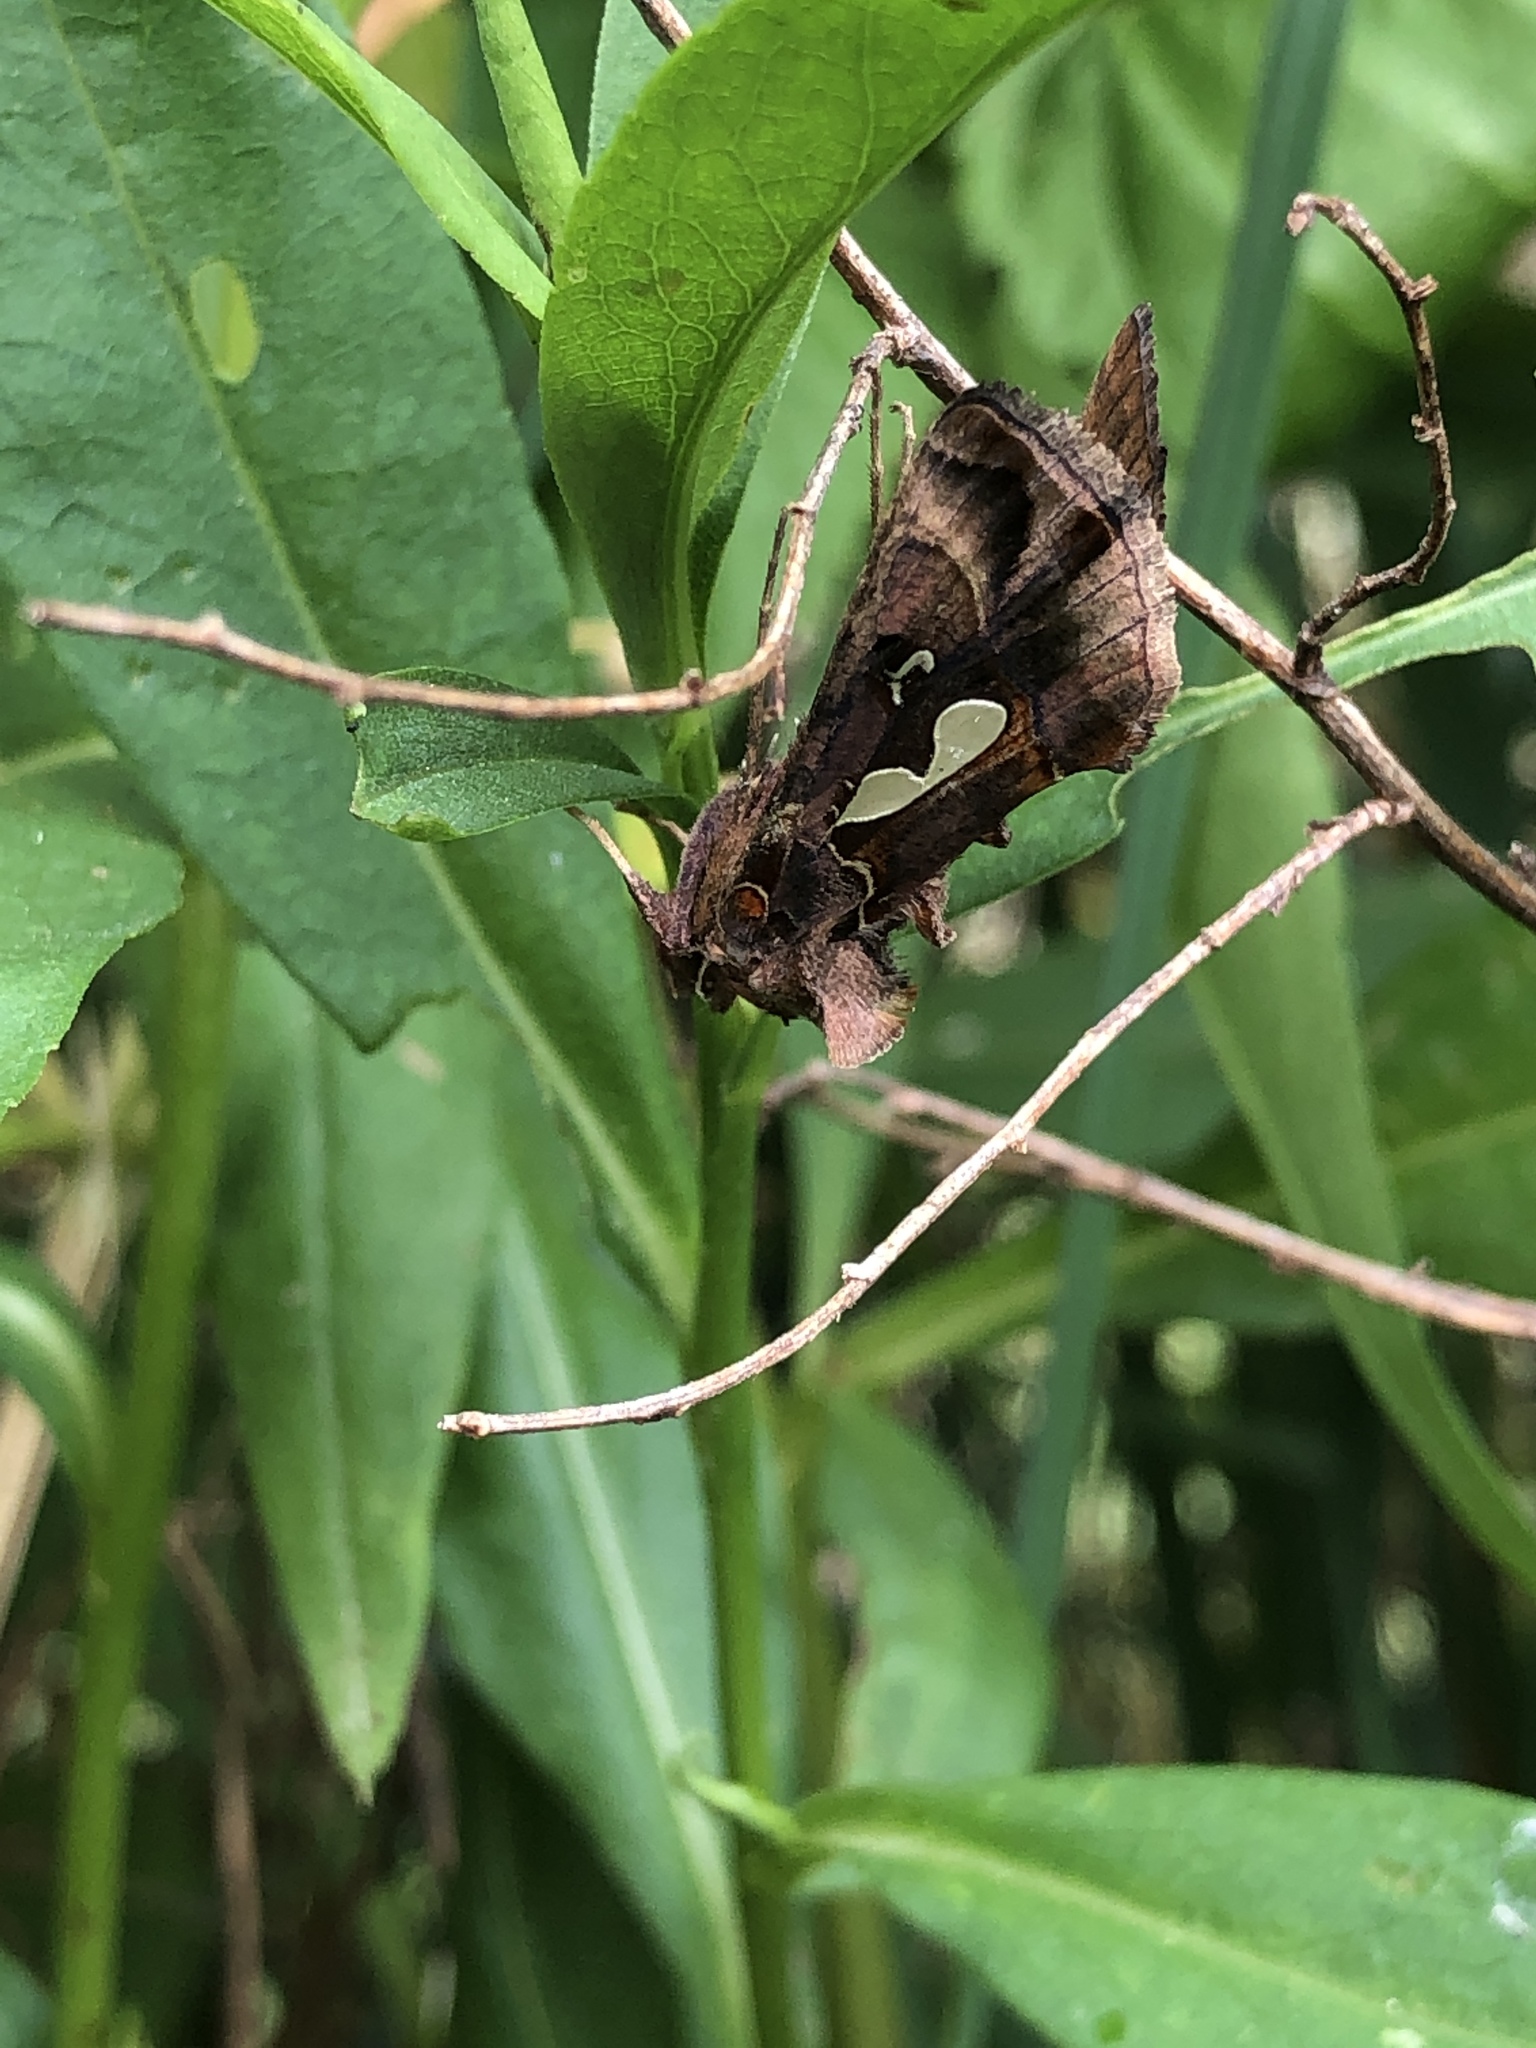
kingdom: Animalia
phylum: Arthropoda
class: Insecta
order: Lepidoptera
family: Noctuidae
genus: Megalographa
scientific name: Megalographa biloba
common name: Cutworm
